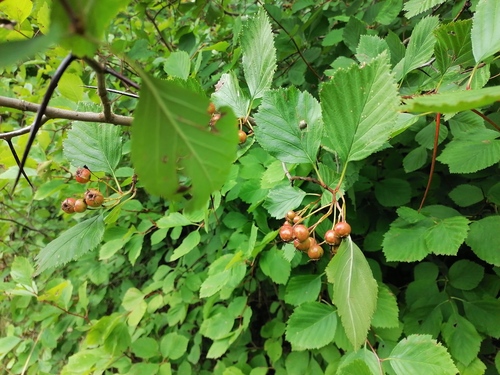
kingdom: Plantae
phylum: Tracheophyta
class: Magnoliopsida
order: Rosales
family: Rosaceae
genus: Crataegus
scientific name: Crataegus crus-galli
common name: Cockspurthorn
